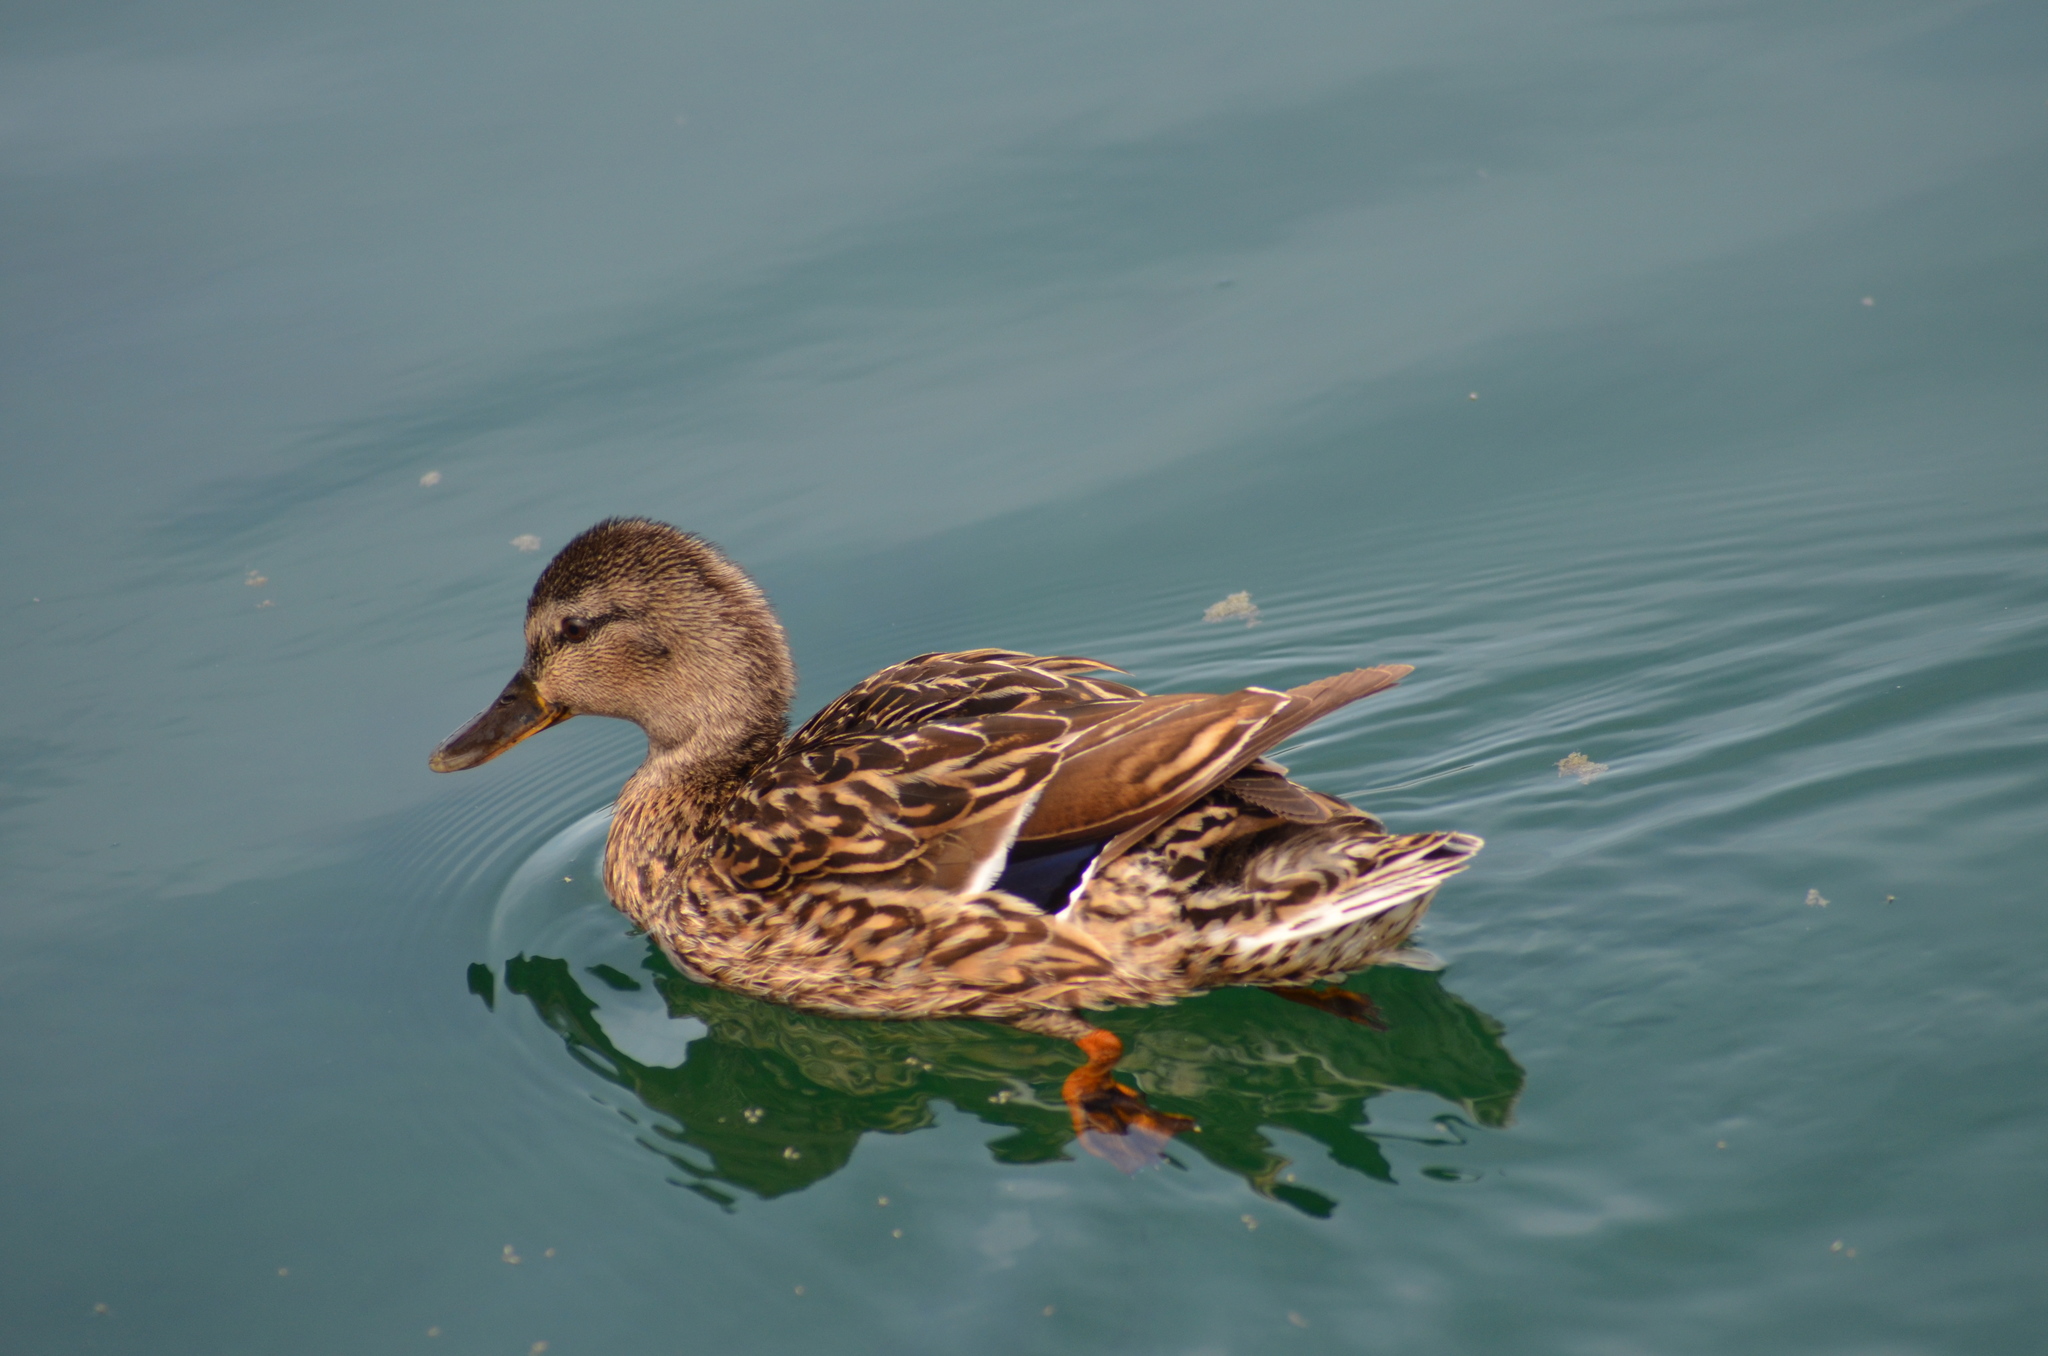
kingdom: Animalia
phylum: Chordata
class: Aves
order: Anseriformes
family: Anatidae
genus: Anas
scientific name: Anas platyrhynchos
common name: Mallard
